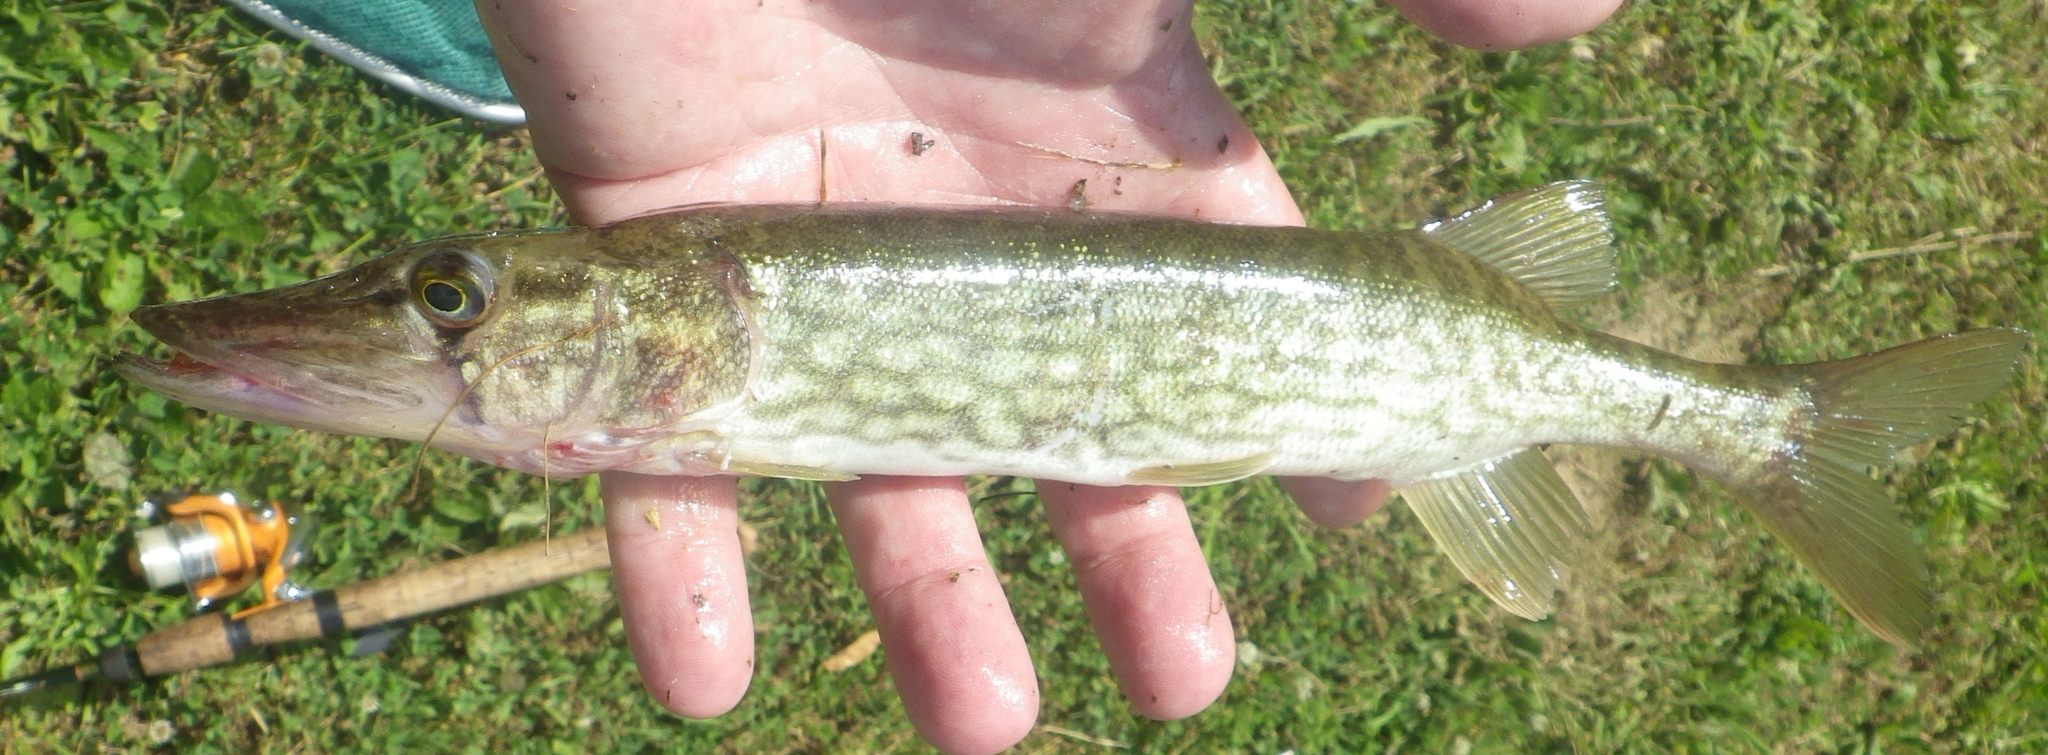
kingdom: Animalia
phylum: Chordata
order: Esociformes
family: Esocidae
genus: Esox
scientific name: Esox niger
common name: Chain pickerel
